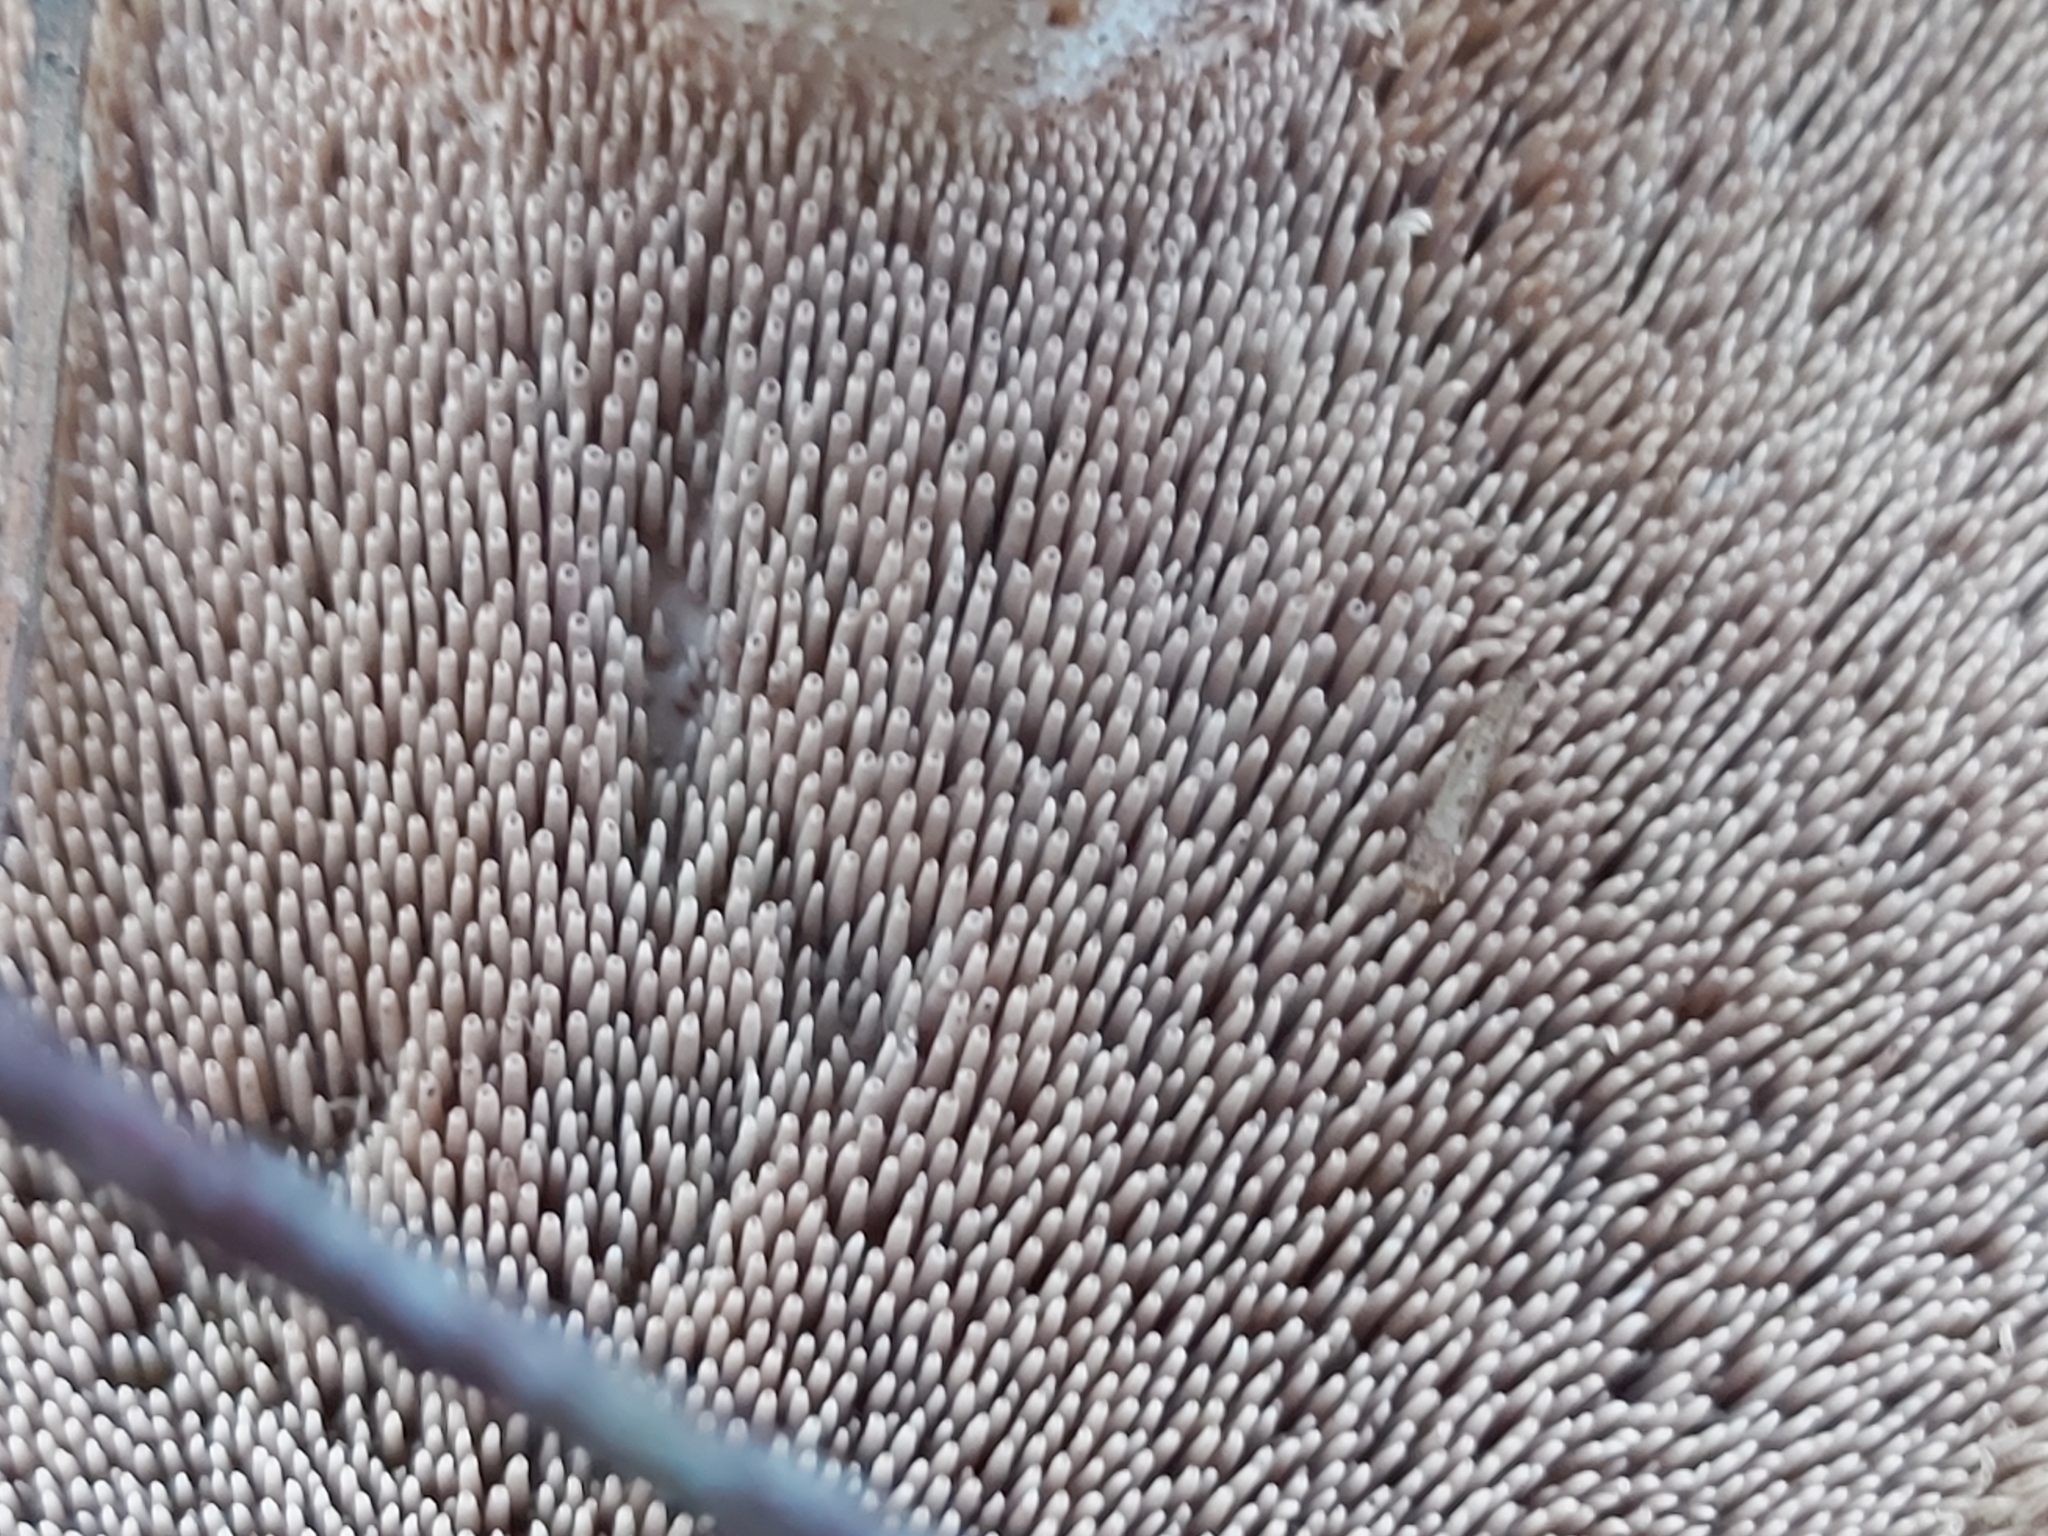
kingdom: Fungi
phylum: Basidiomycota
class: Agaricomycetes
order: Thelephorales
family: Bankeraceae
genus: Sarcodon
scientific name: Sarcodon imbricatus
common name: Shingled hedgehog
